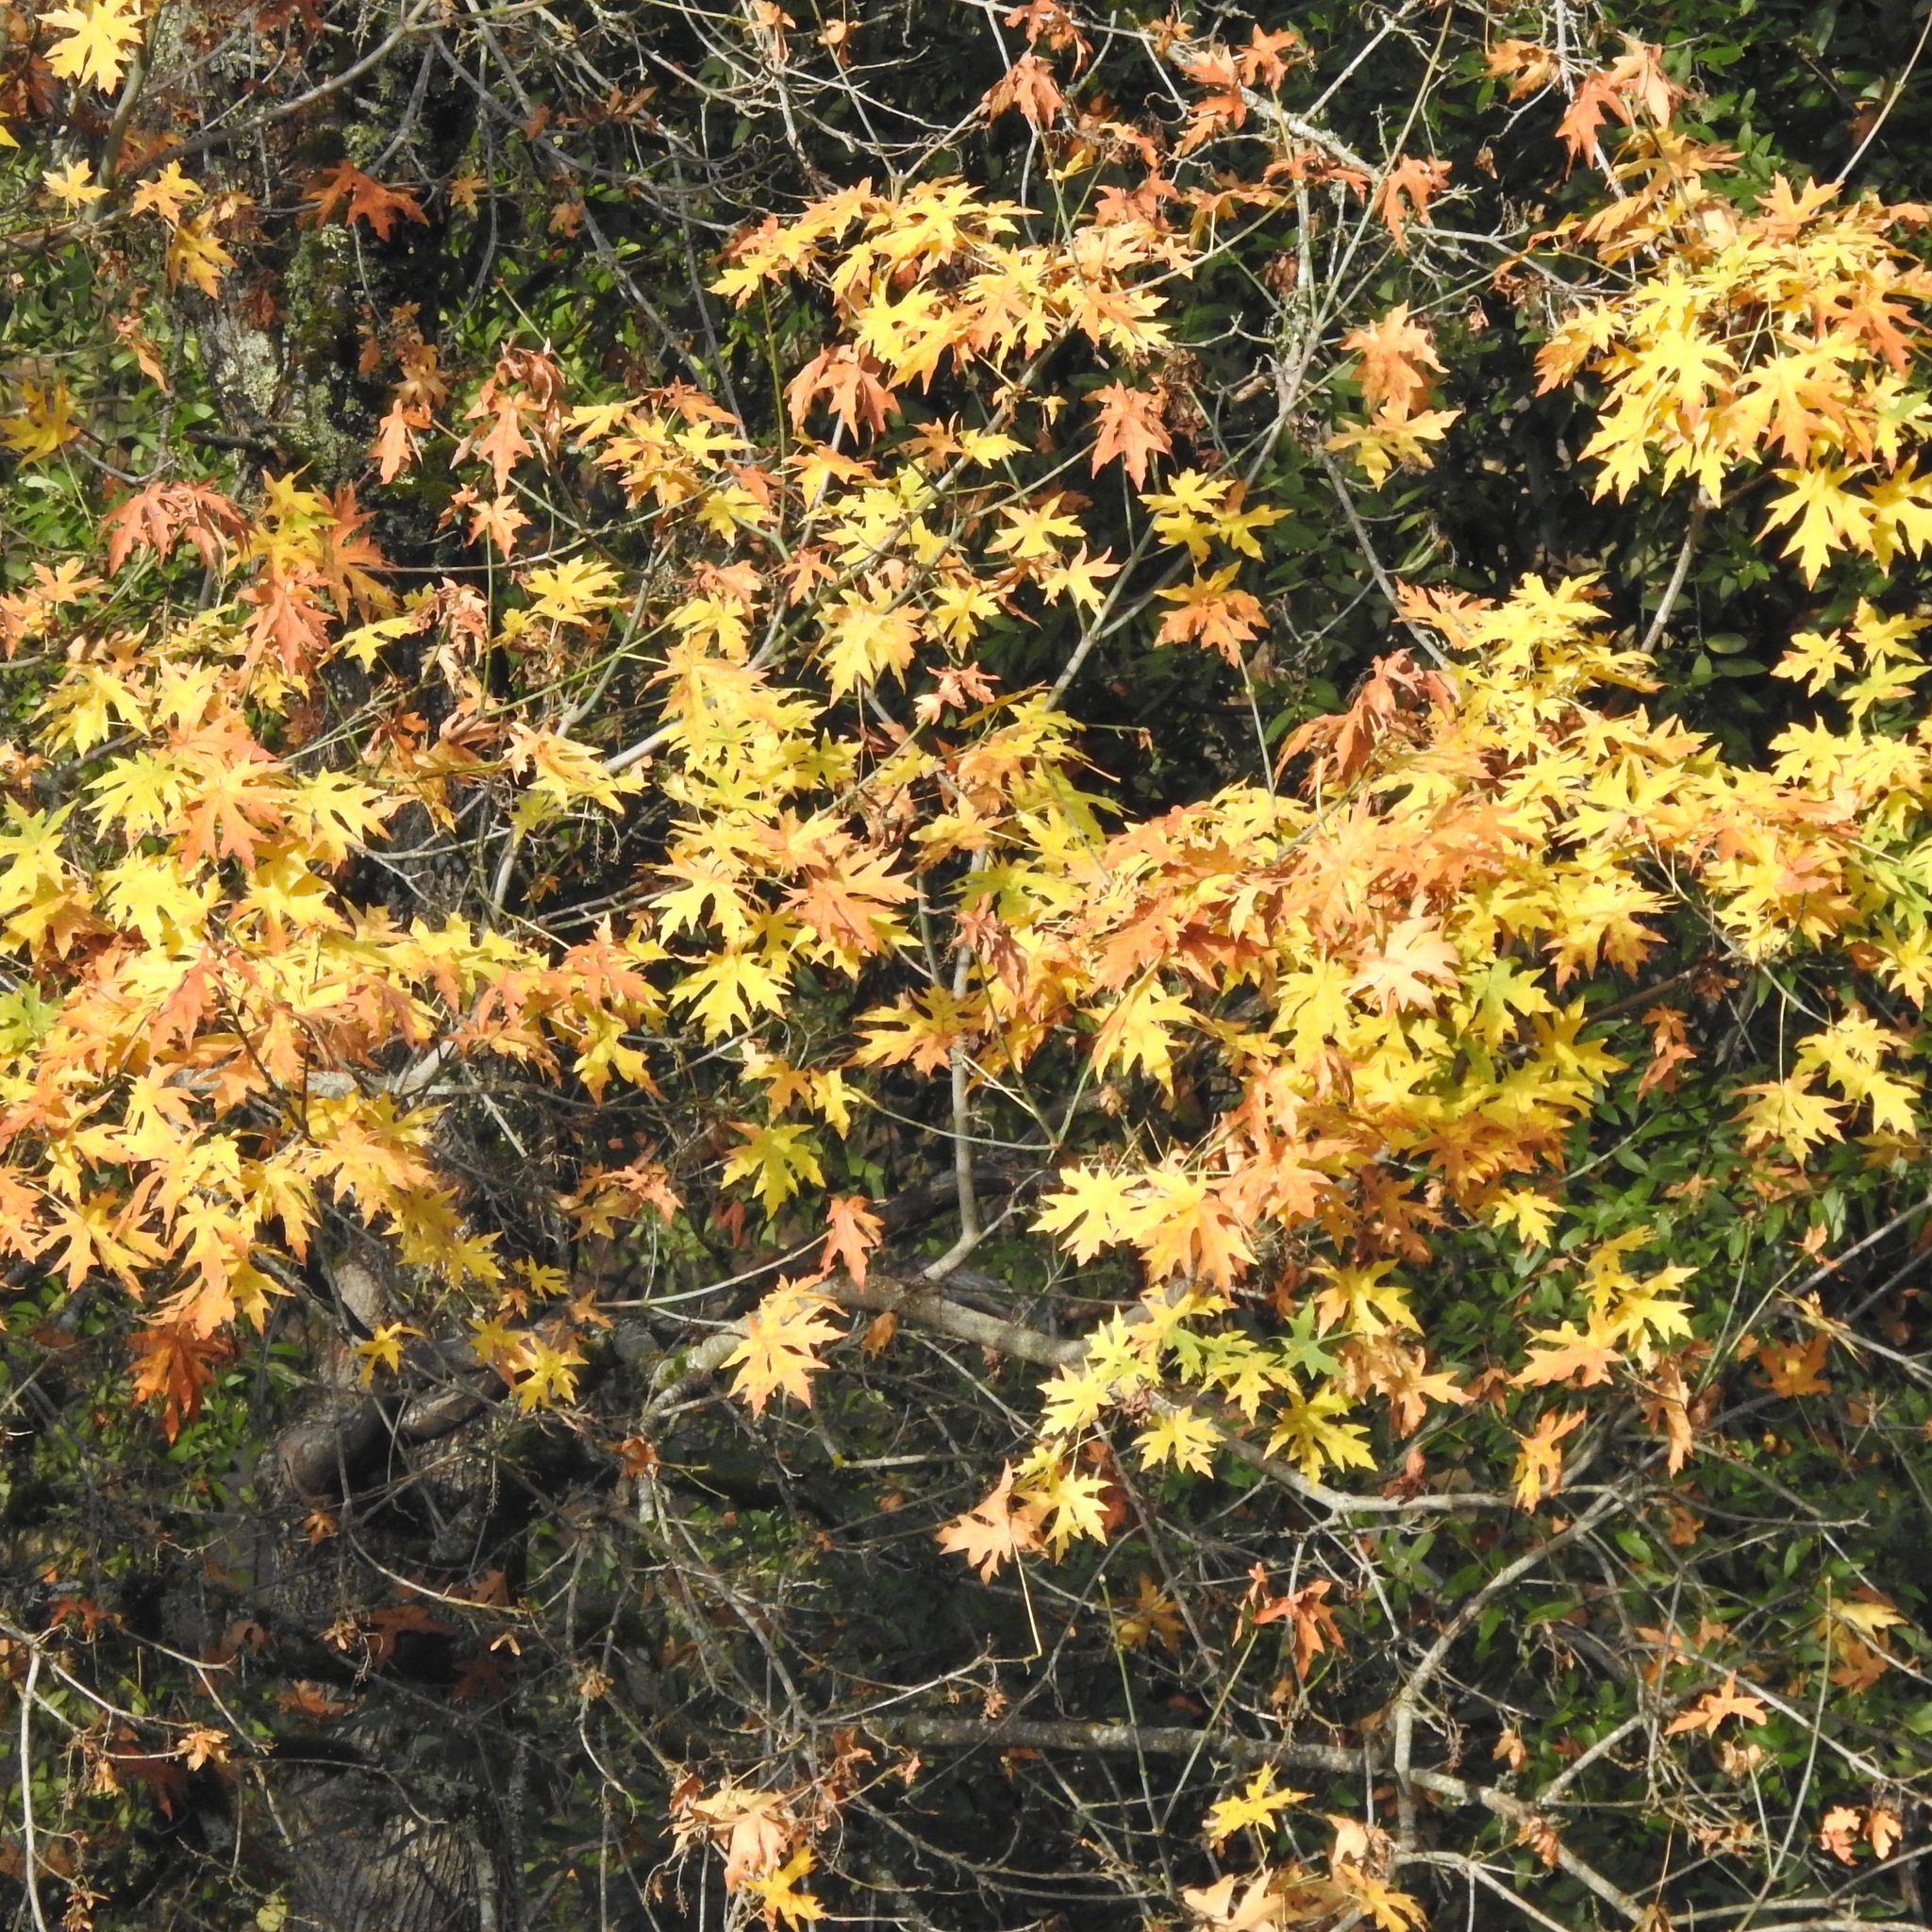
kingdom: Plantae
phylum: Tracheophyta
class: Magnoliopsida
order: Sapindales
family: Sapindaceae
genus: Acer
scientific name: Acer macrophyllum
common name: Oregon maple
